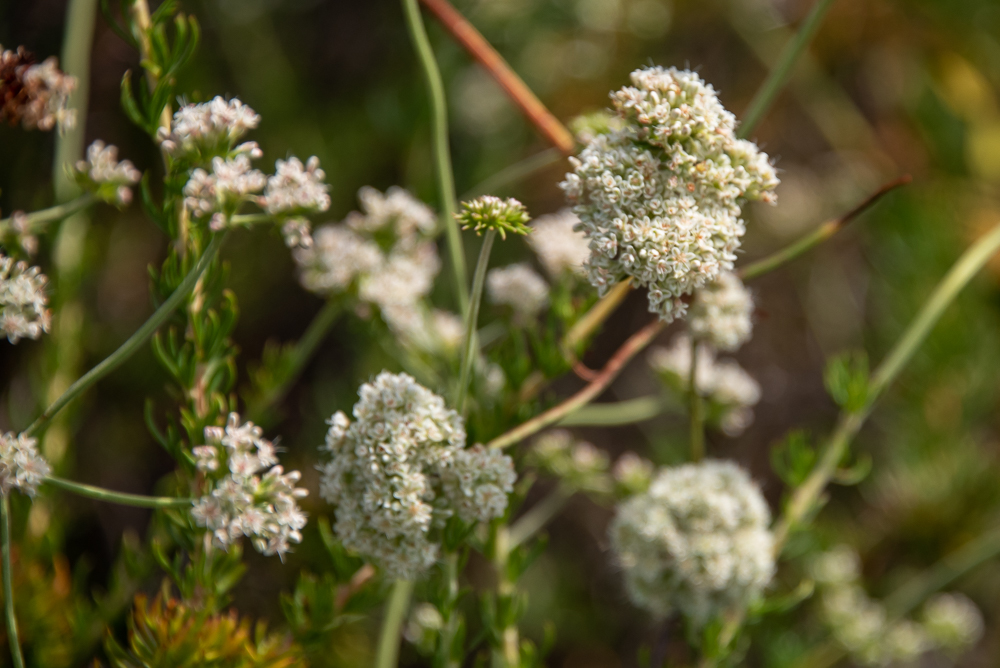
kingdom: Plantae
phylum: Tracheophyta
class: Magnoliopsida
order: Caryophyllales
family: Polygonaceae
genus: Eriogonum
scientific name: Eriogonum fasciculatum
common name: California wild buckwheat
